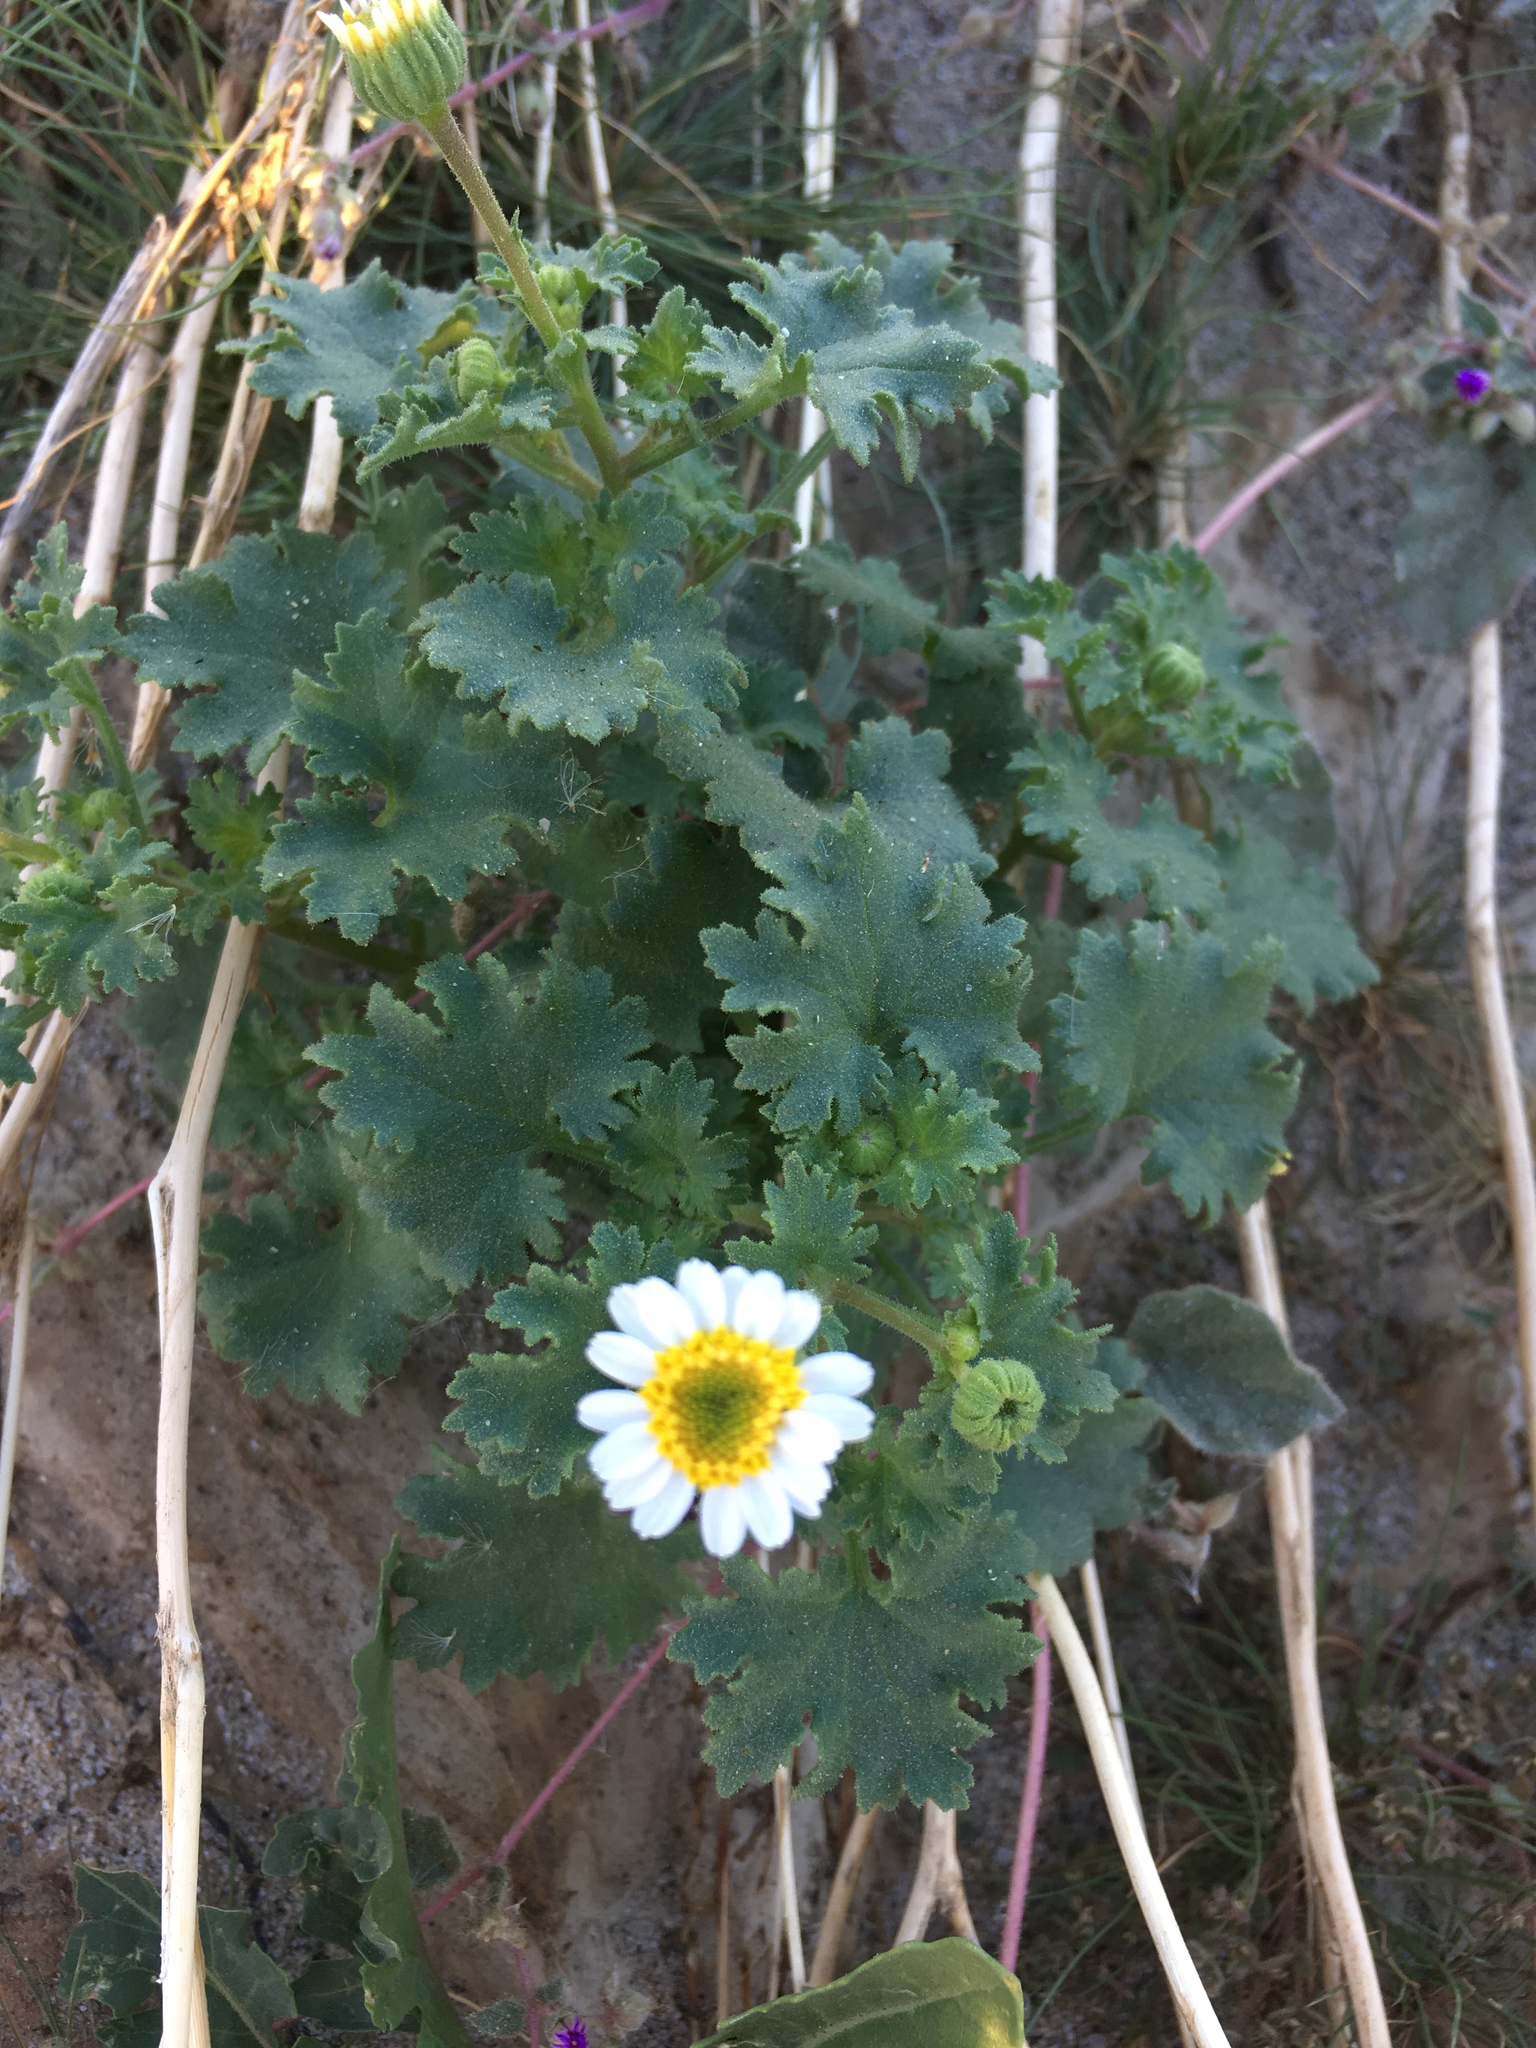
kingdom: Plantae
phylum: Tracheophyta
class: Magnoliopsida
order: Asterales
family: Asteraceae
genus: Laphamia
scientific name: Laphamia emoryi
